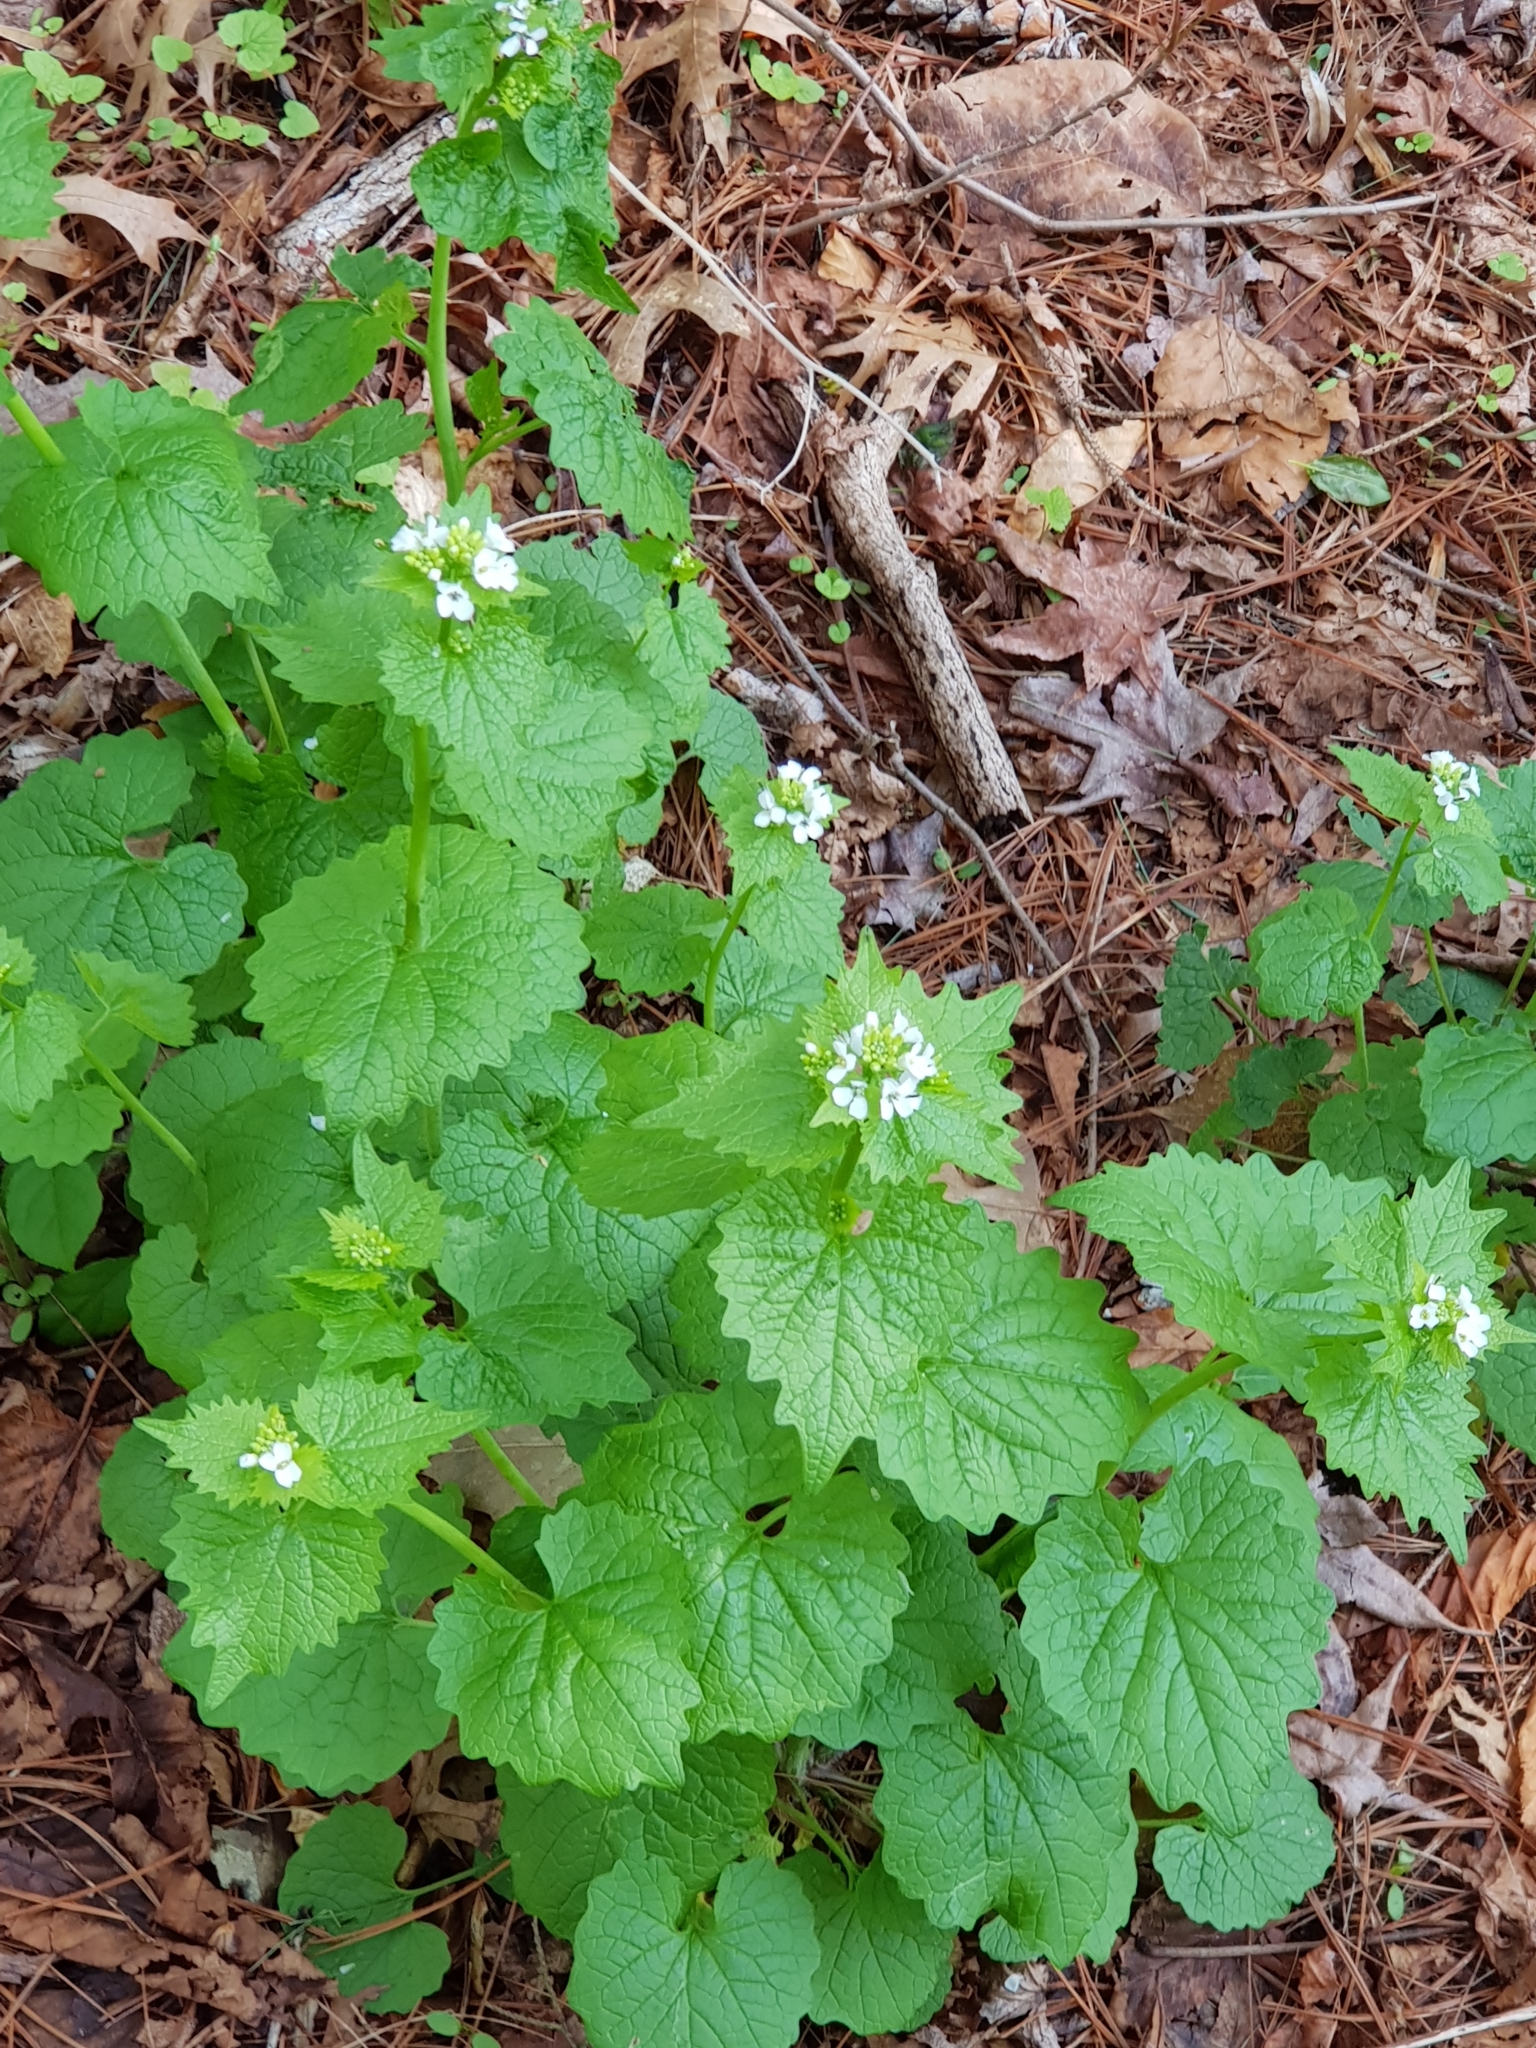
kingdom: Plantae
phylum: Tracheophyta
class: Magnoliopsida
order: Brassicales
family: Brassicaceae
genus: Alliaria
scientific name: Alliaria petiolata
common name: Garlic mustard
